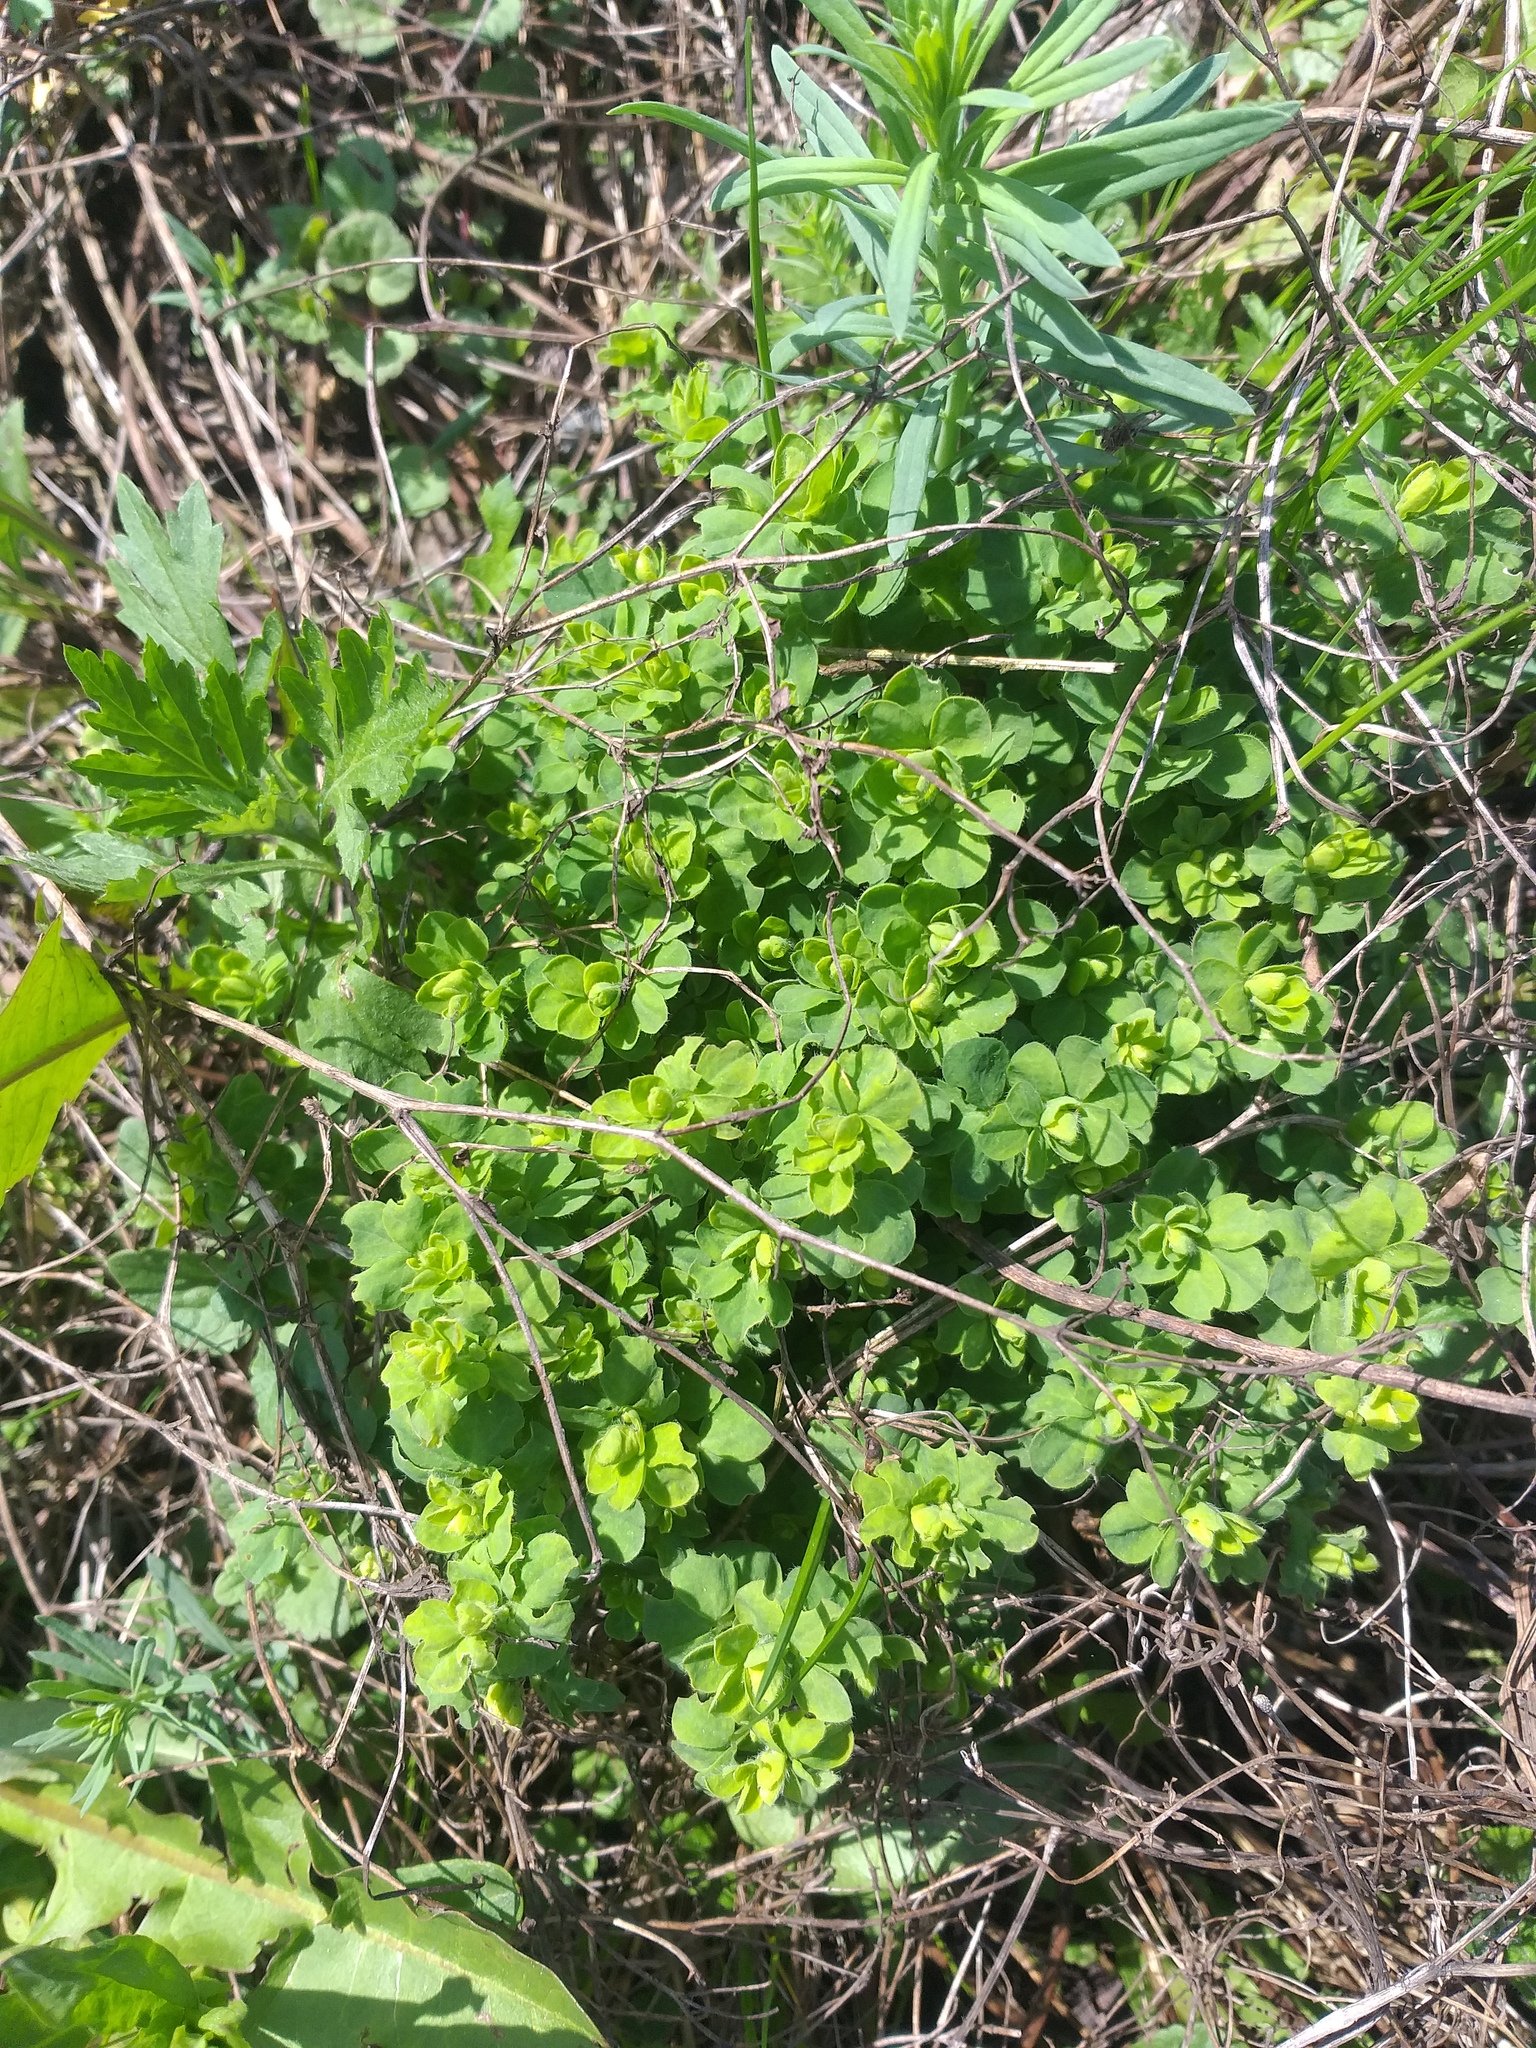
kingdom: Plantae
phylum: Tracheophyta
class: Magnoliopsida
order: Fabales
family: Fabaceae
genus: Lotus
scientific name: Lotus corniculatus
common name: Common bird's-foot-trefoil
